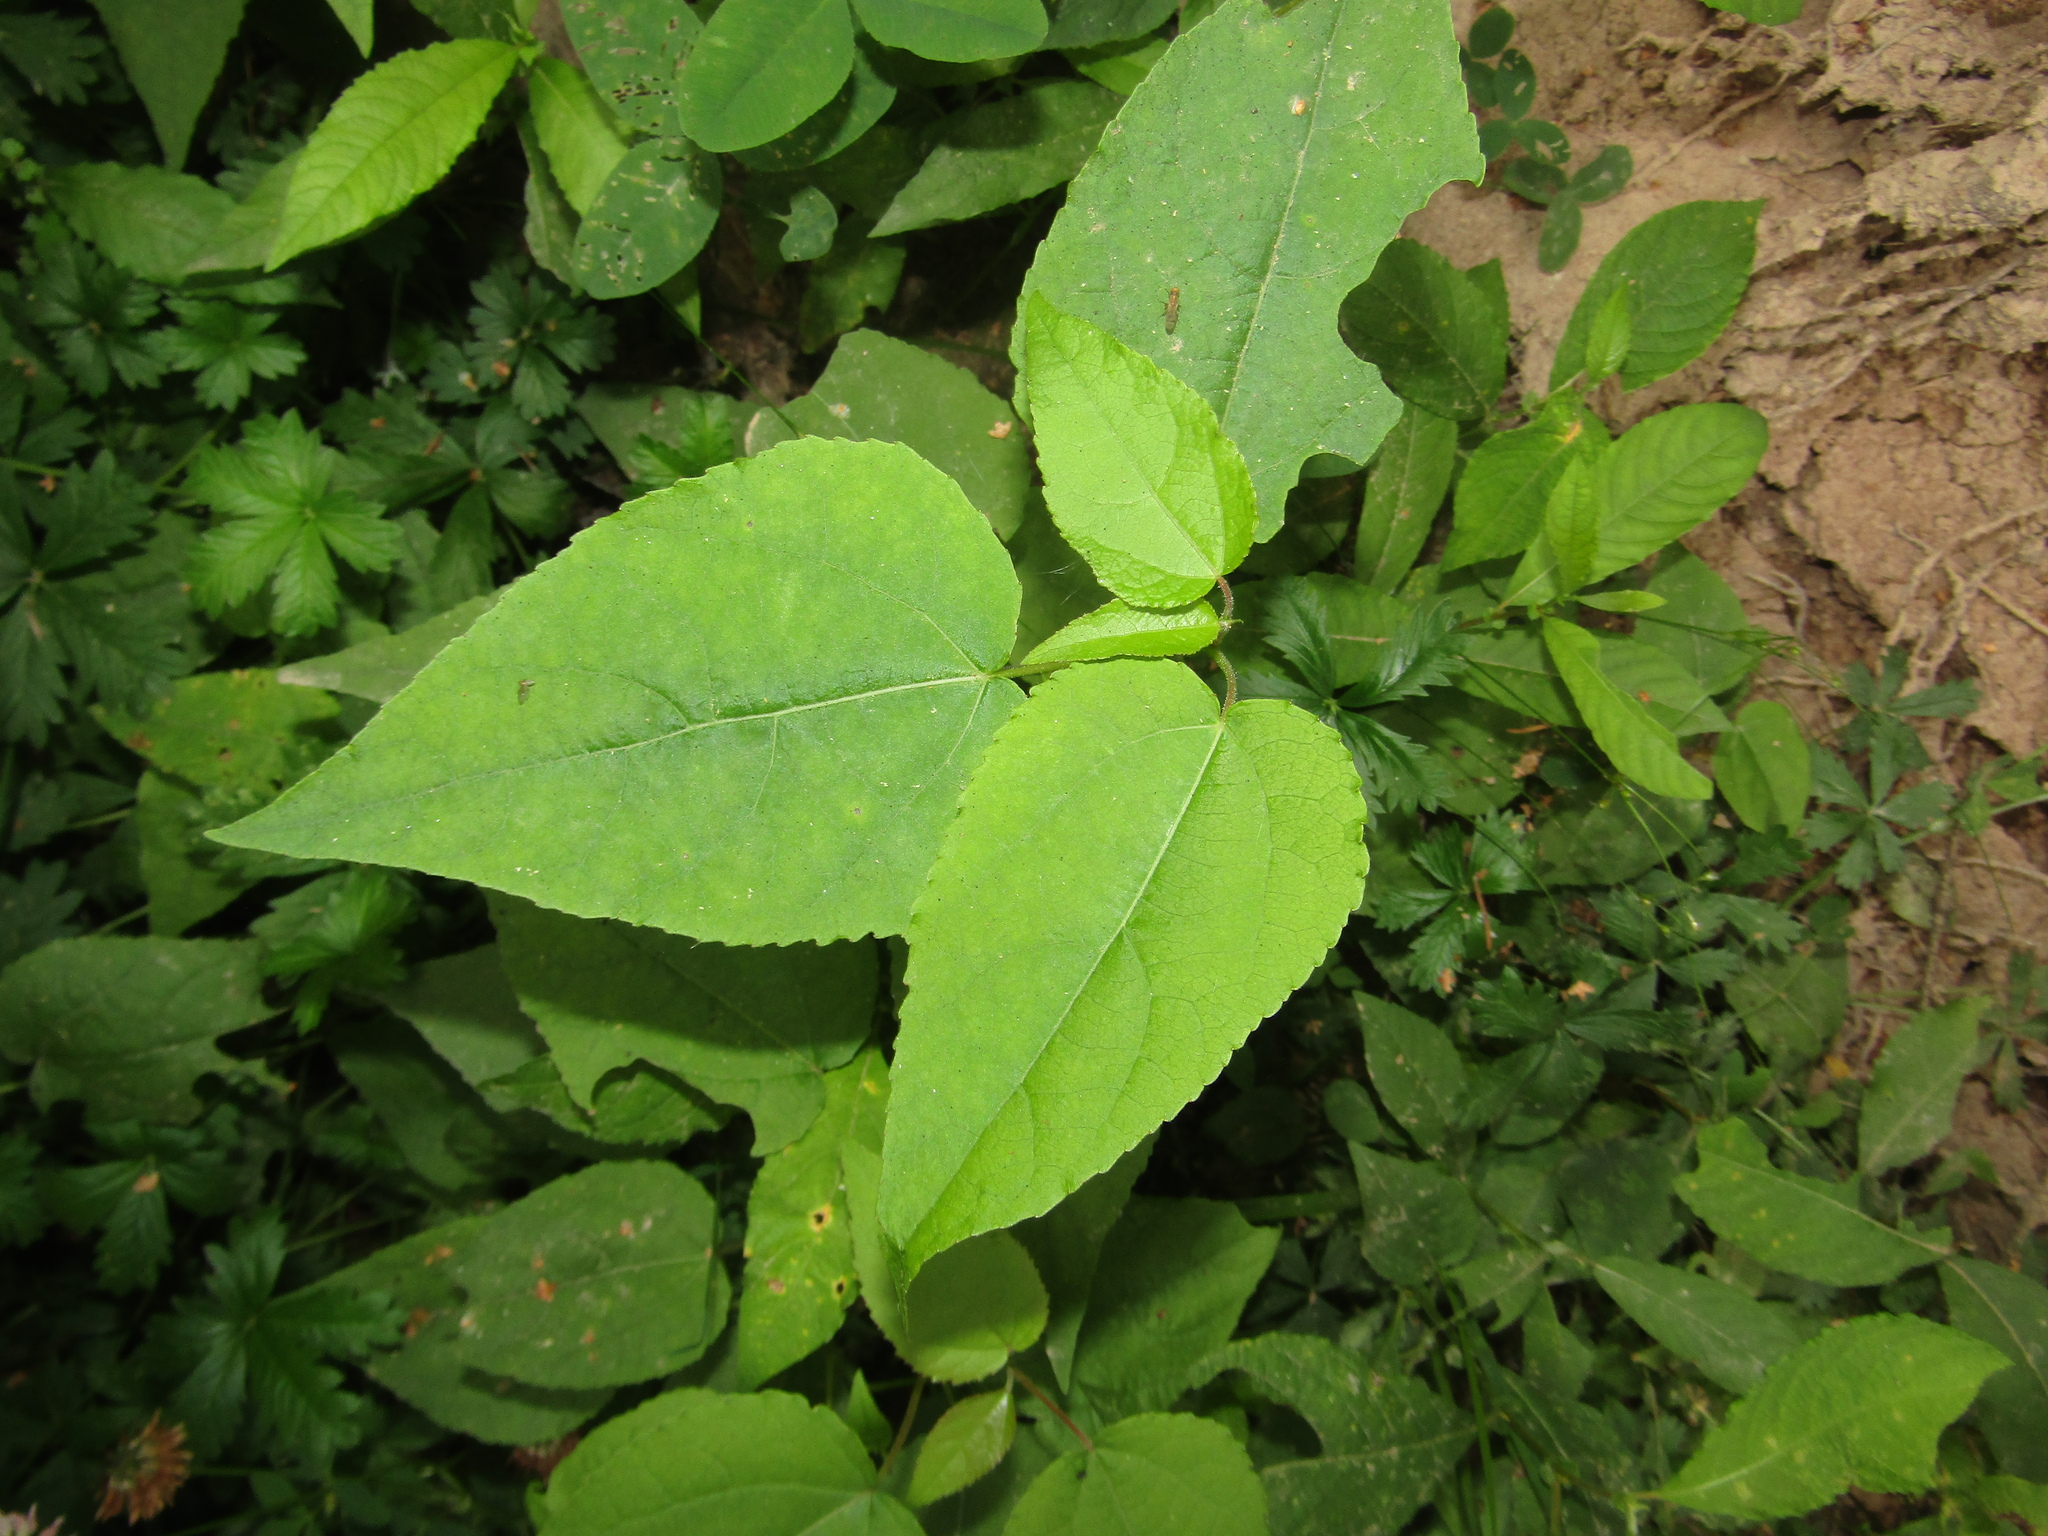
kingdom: Plantae
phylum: Tracheophyta
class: Magnoliopsida
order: Malpighiales
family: Salicaceae
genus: Populus
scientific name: Populus tremula
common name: European aspen
